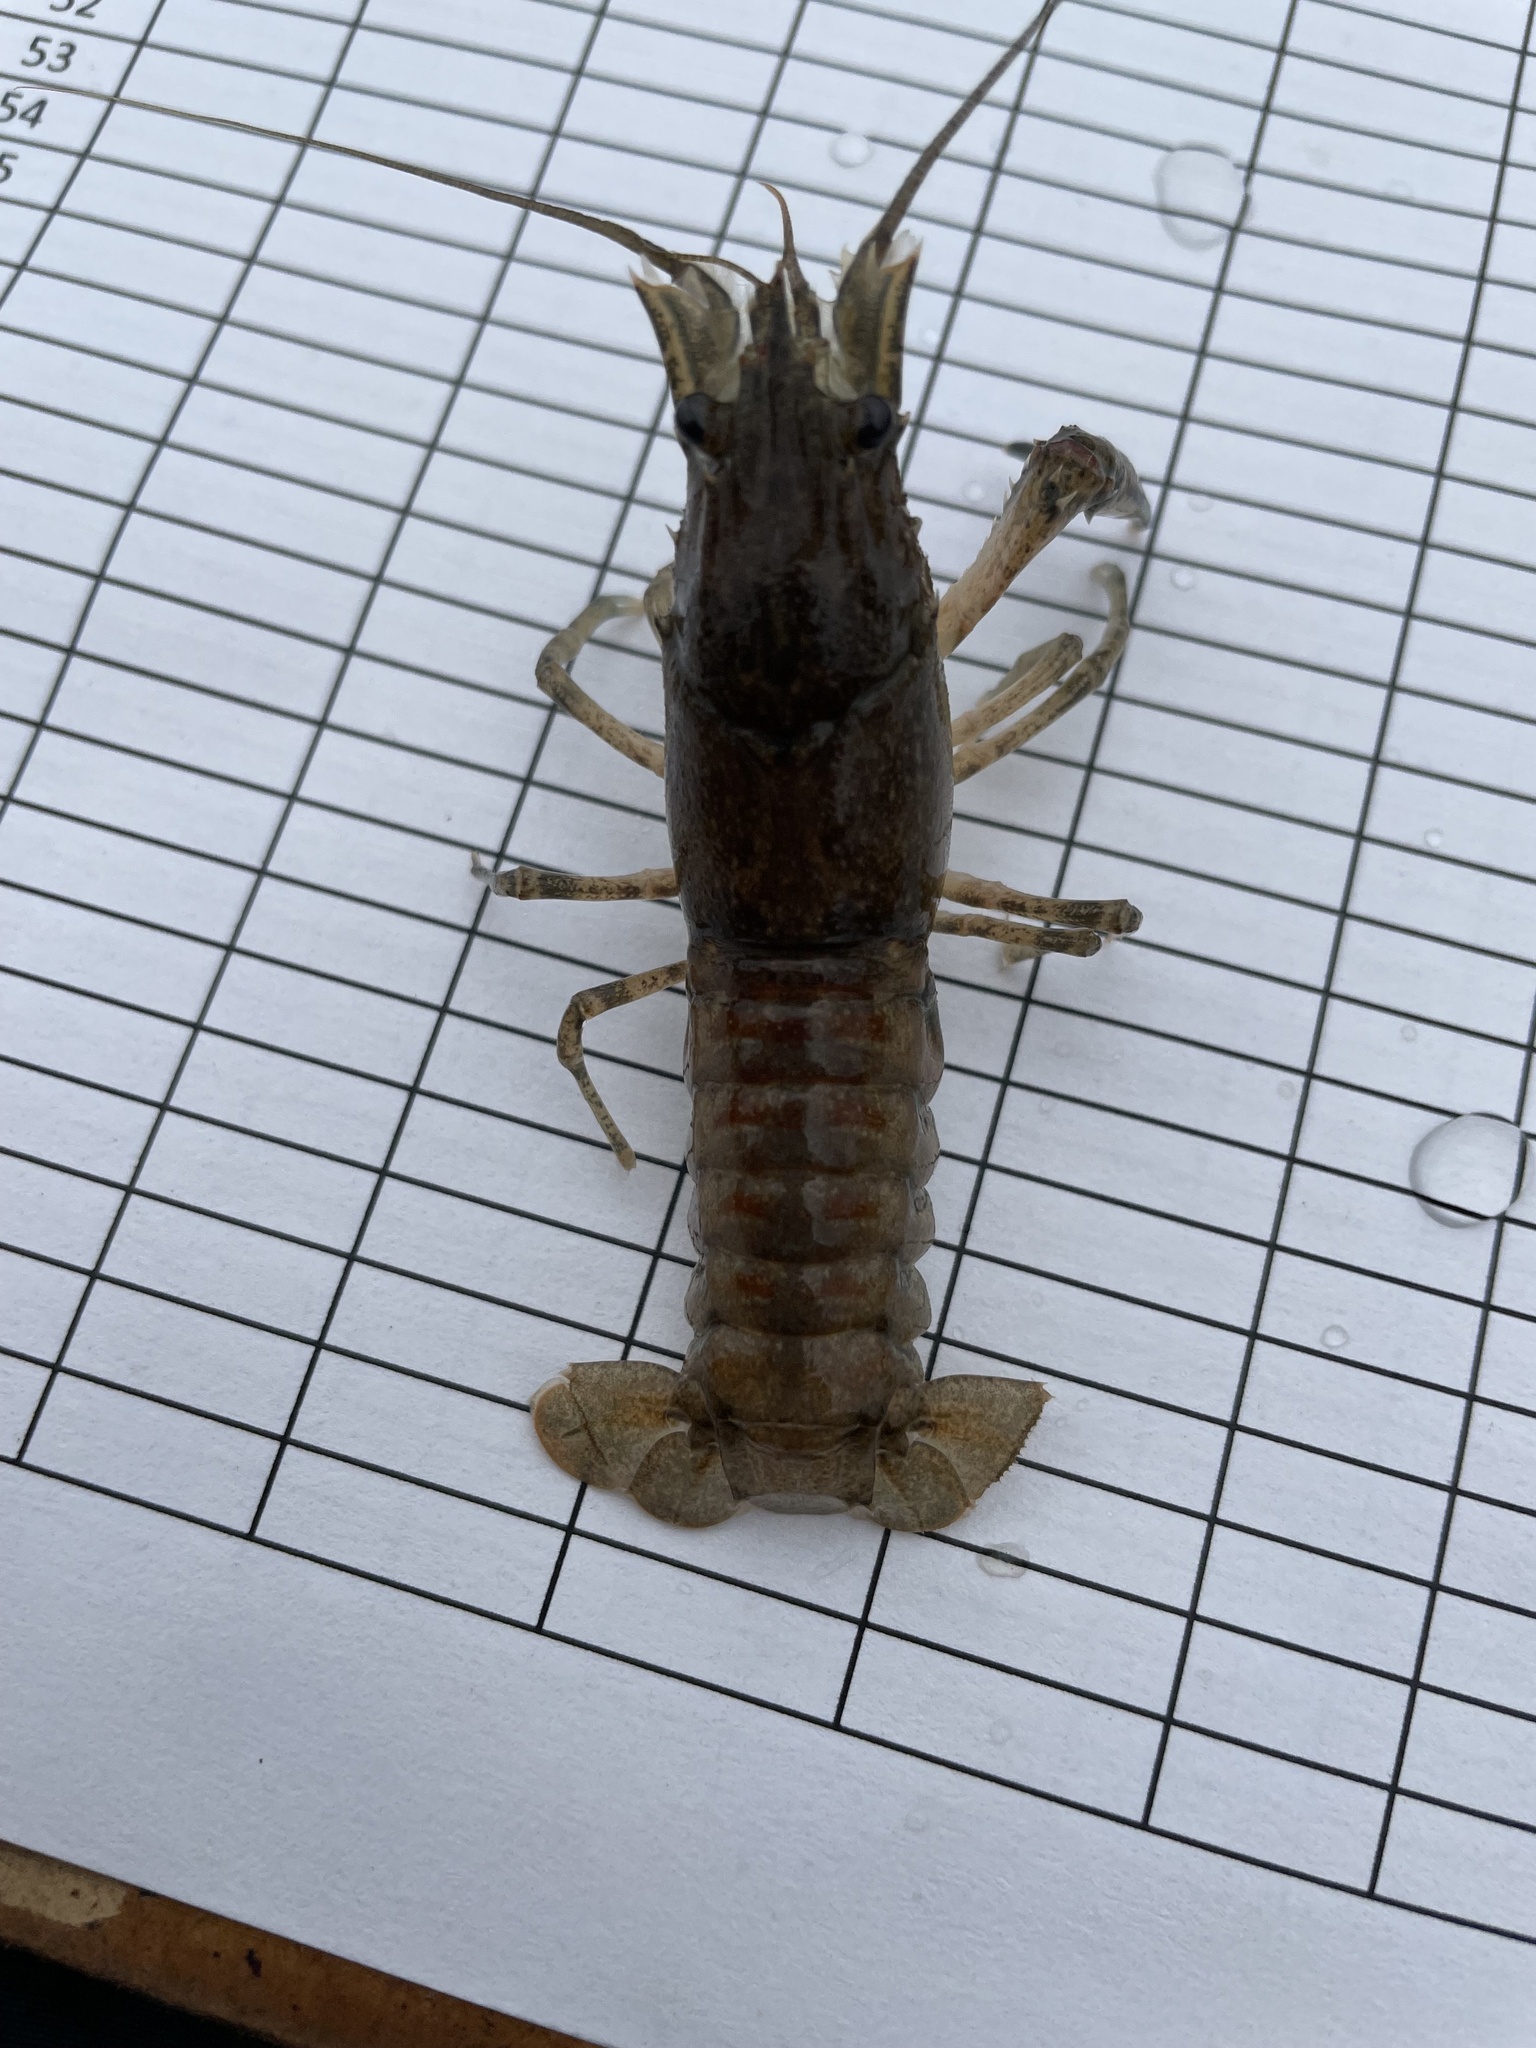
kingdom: Animalia
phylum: Arthropoda
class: Malacostraca
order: Decapoda
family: Cambaridae
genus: Faxonius
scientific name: Faxonius limosus
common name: American crayfish
